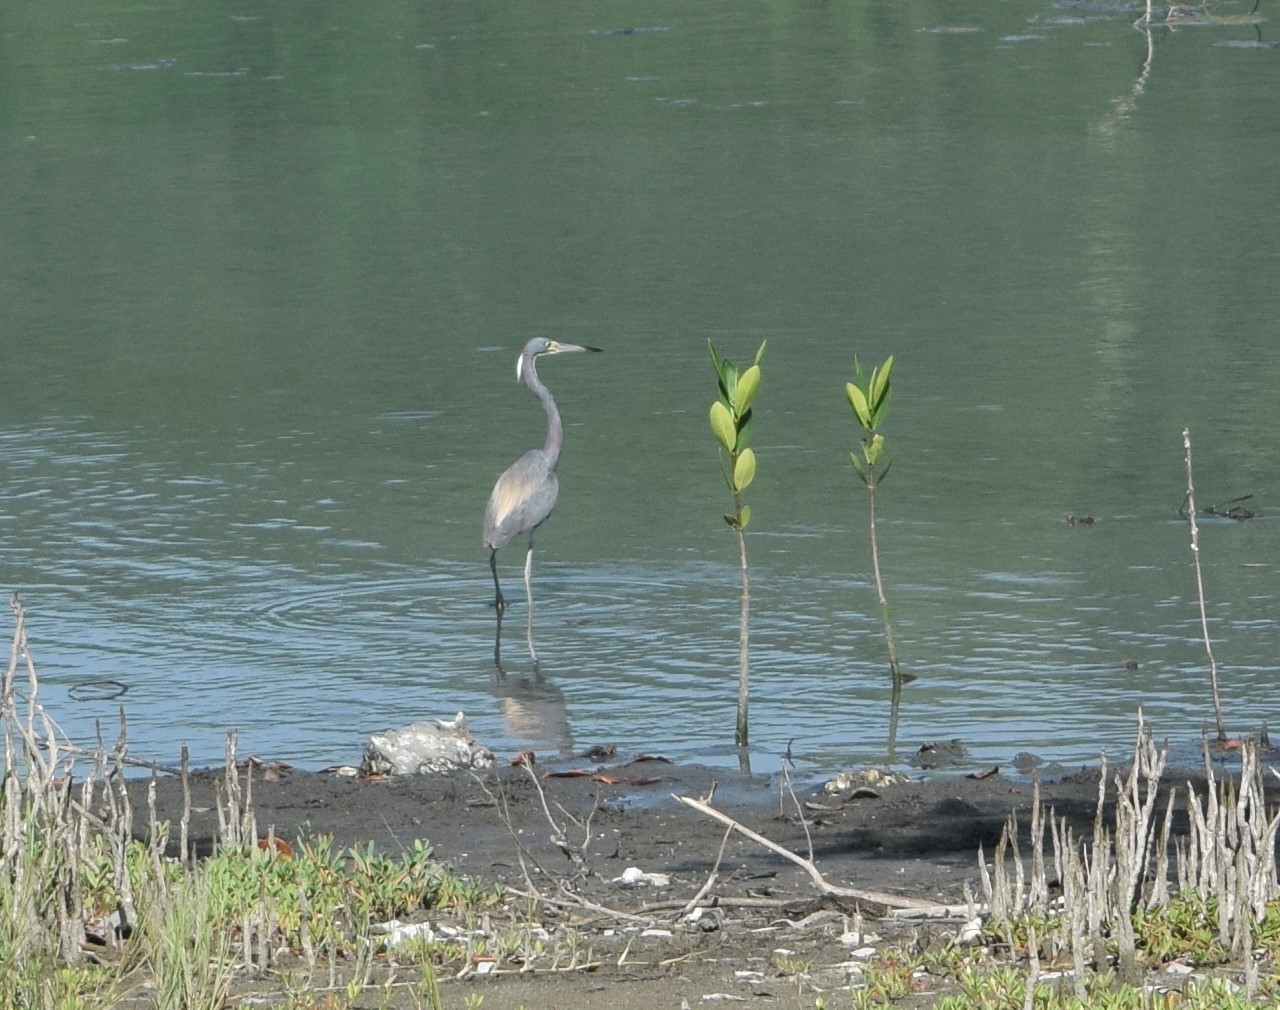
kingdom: Animalia
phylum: Chordata
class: Aves
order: Pelecaniformes
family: Ardeidae
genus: Egretta
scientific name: Egretta tricolor
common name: Tricolored heron
